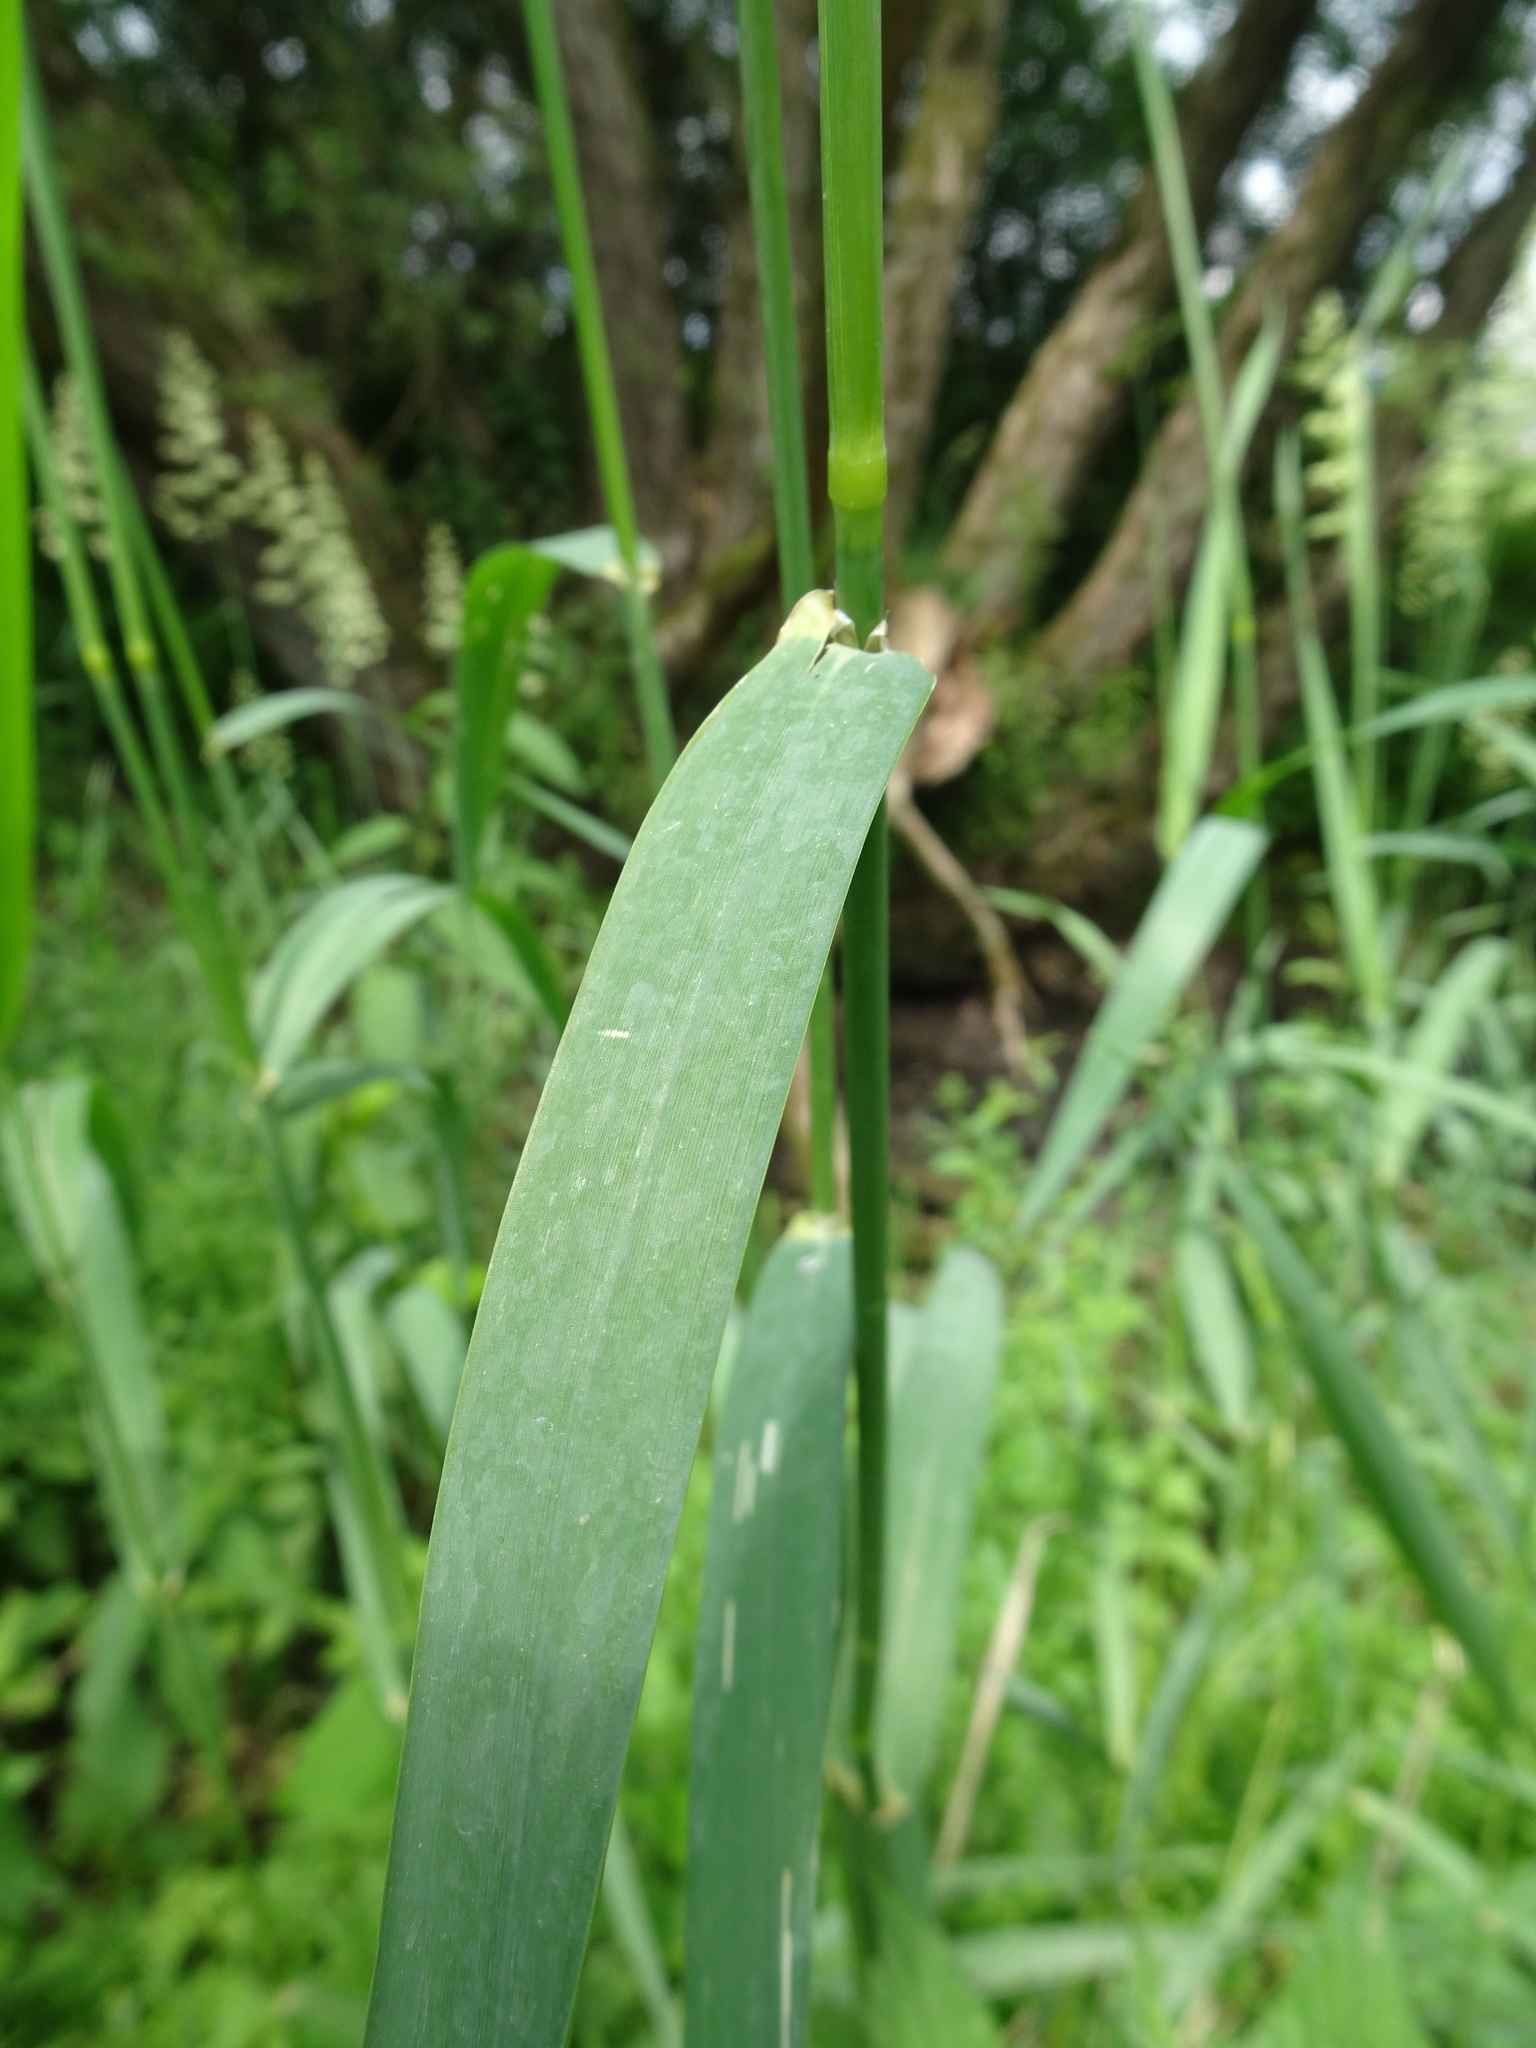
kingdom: Plantae
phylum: Tracheophyta
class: Liliopsida
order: Poales
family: Poaceae
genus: Phalaris
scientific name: Phalaris arundinacea
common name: Reed canary-grass
